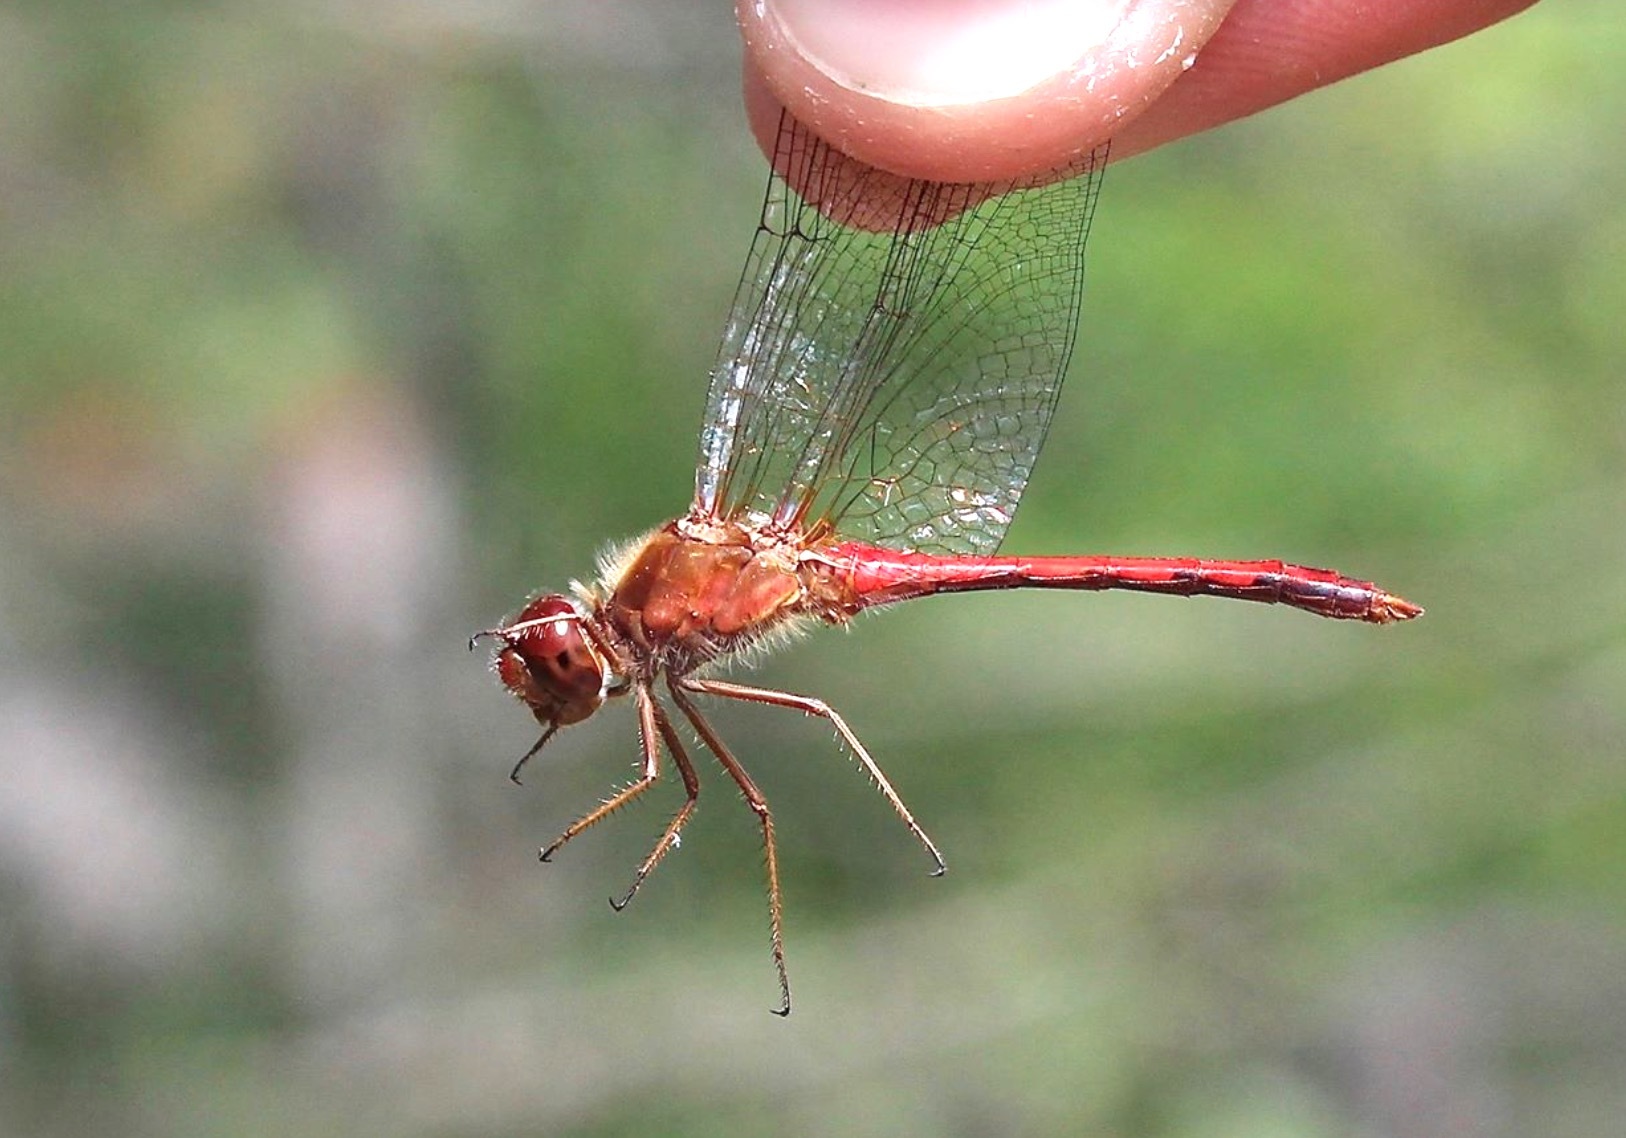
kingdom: Animalia
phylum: Arthropoda
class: Insecta
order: Odonata
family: Libellulidae
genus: Sympetrum
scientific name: Sympetrum vicinum
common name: Autumn meadowhawk
